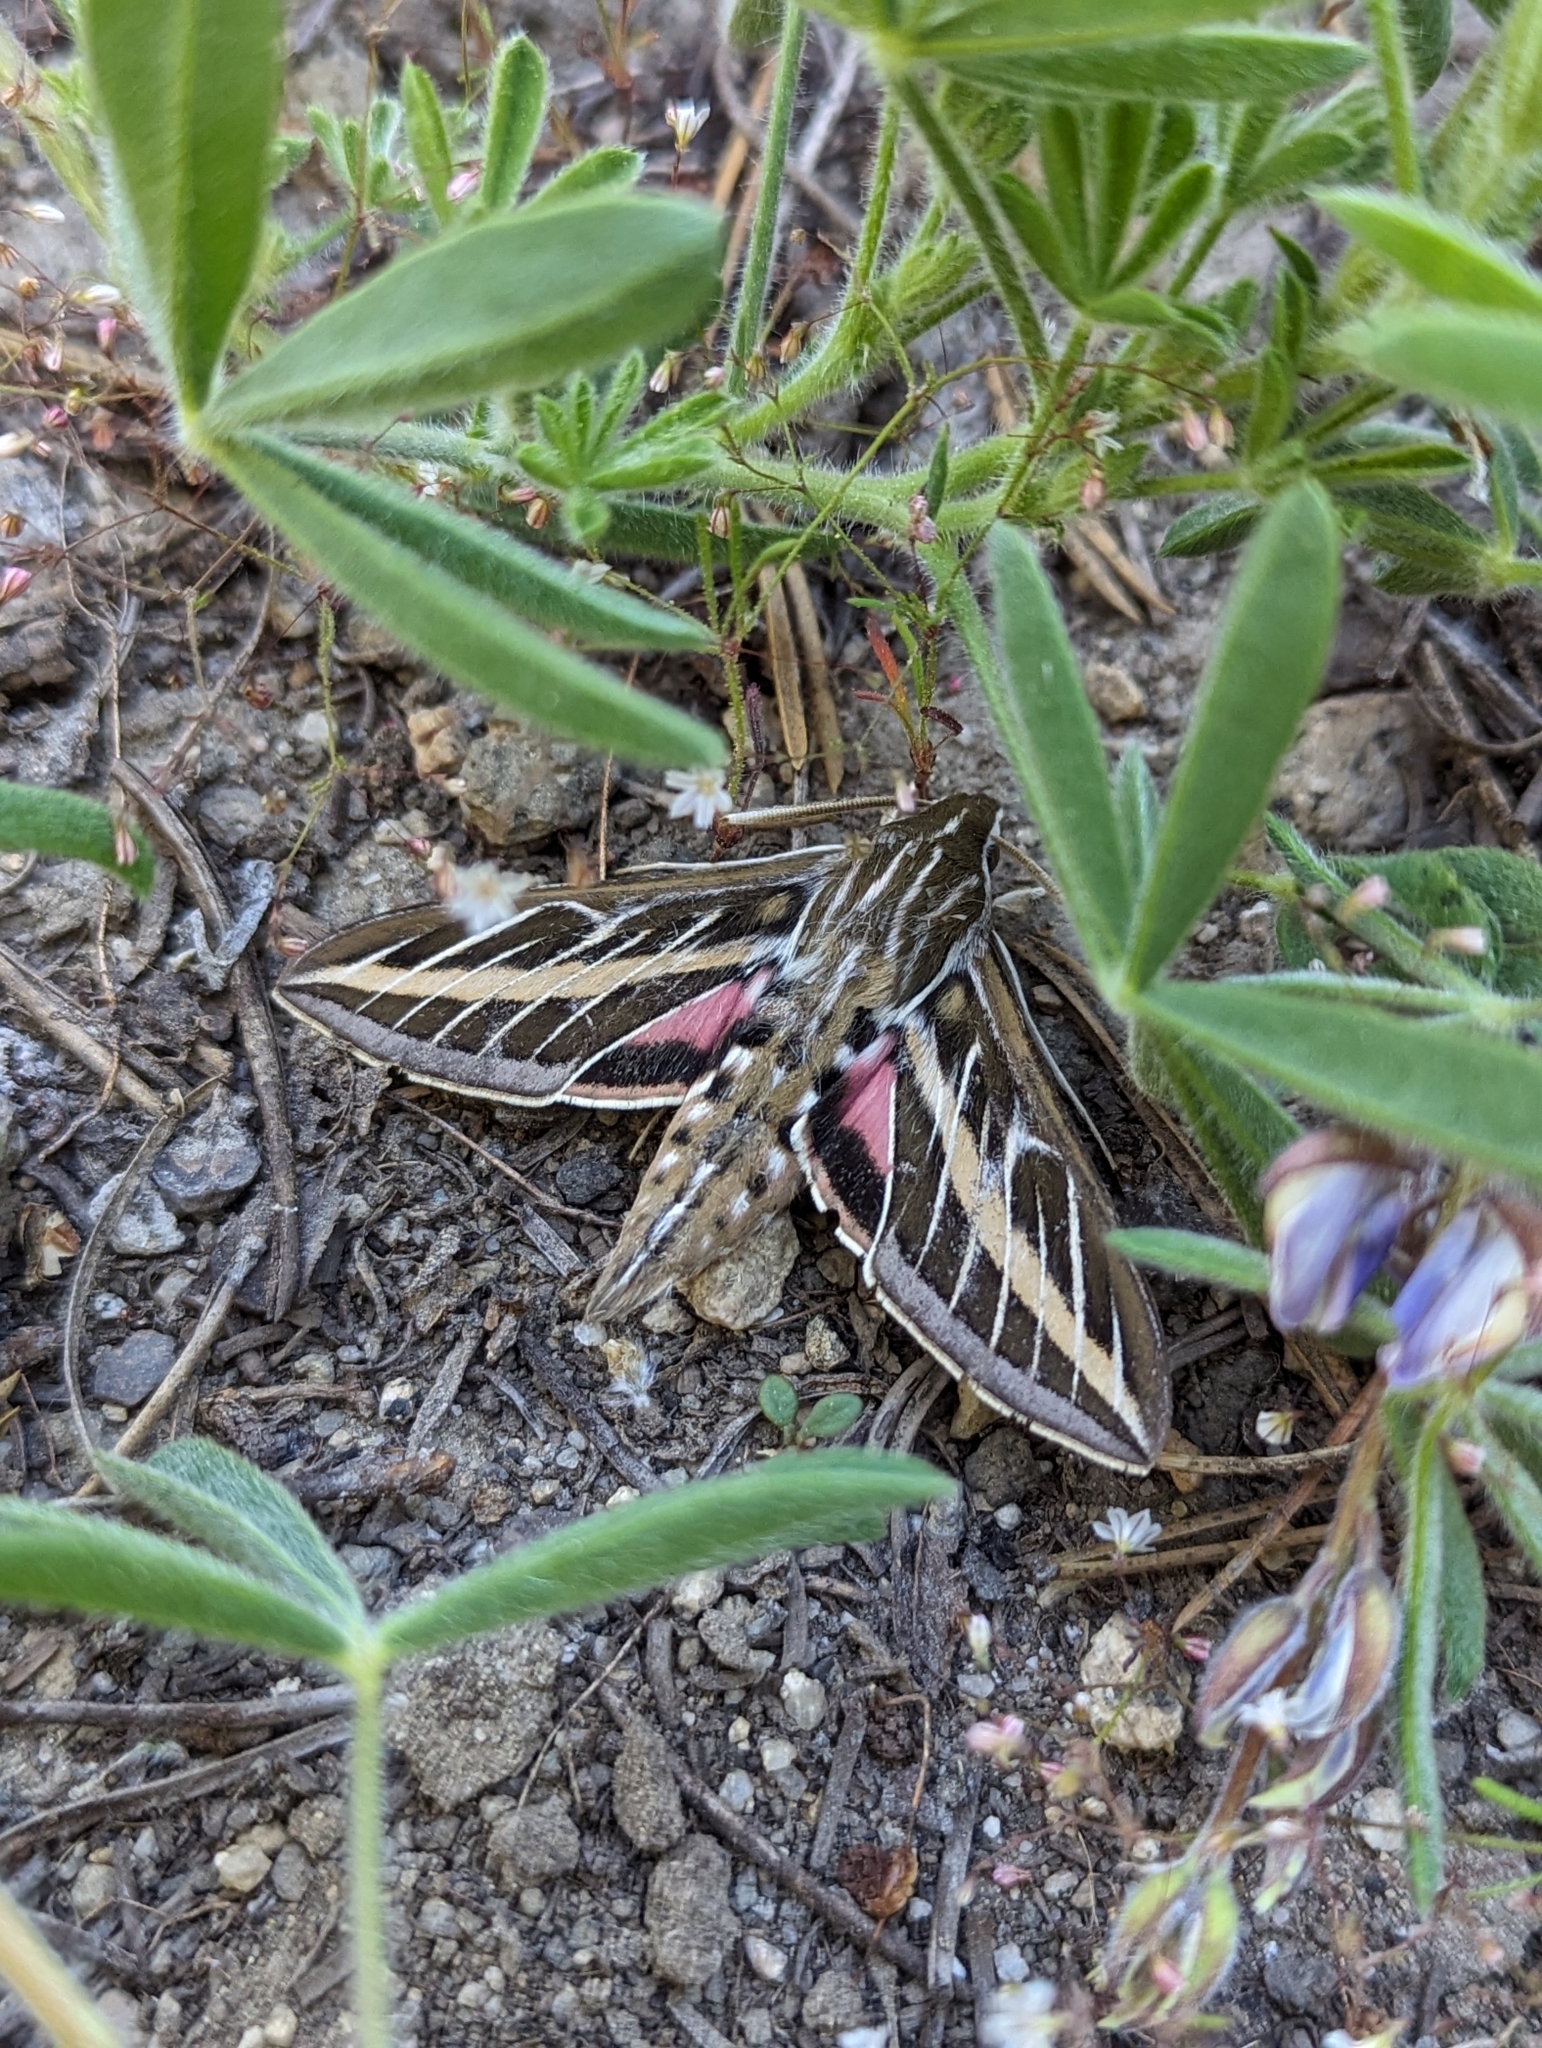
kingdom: Animalia
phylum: Arthropoda
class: Insecta
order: Lepidoptera
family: Sphingidae
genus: Hyles
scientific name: Hyles lineata
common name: White-lined sphinx
